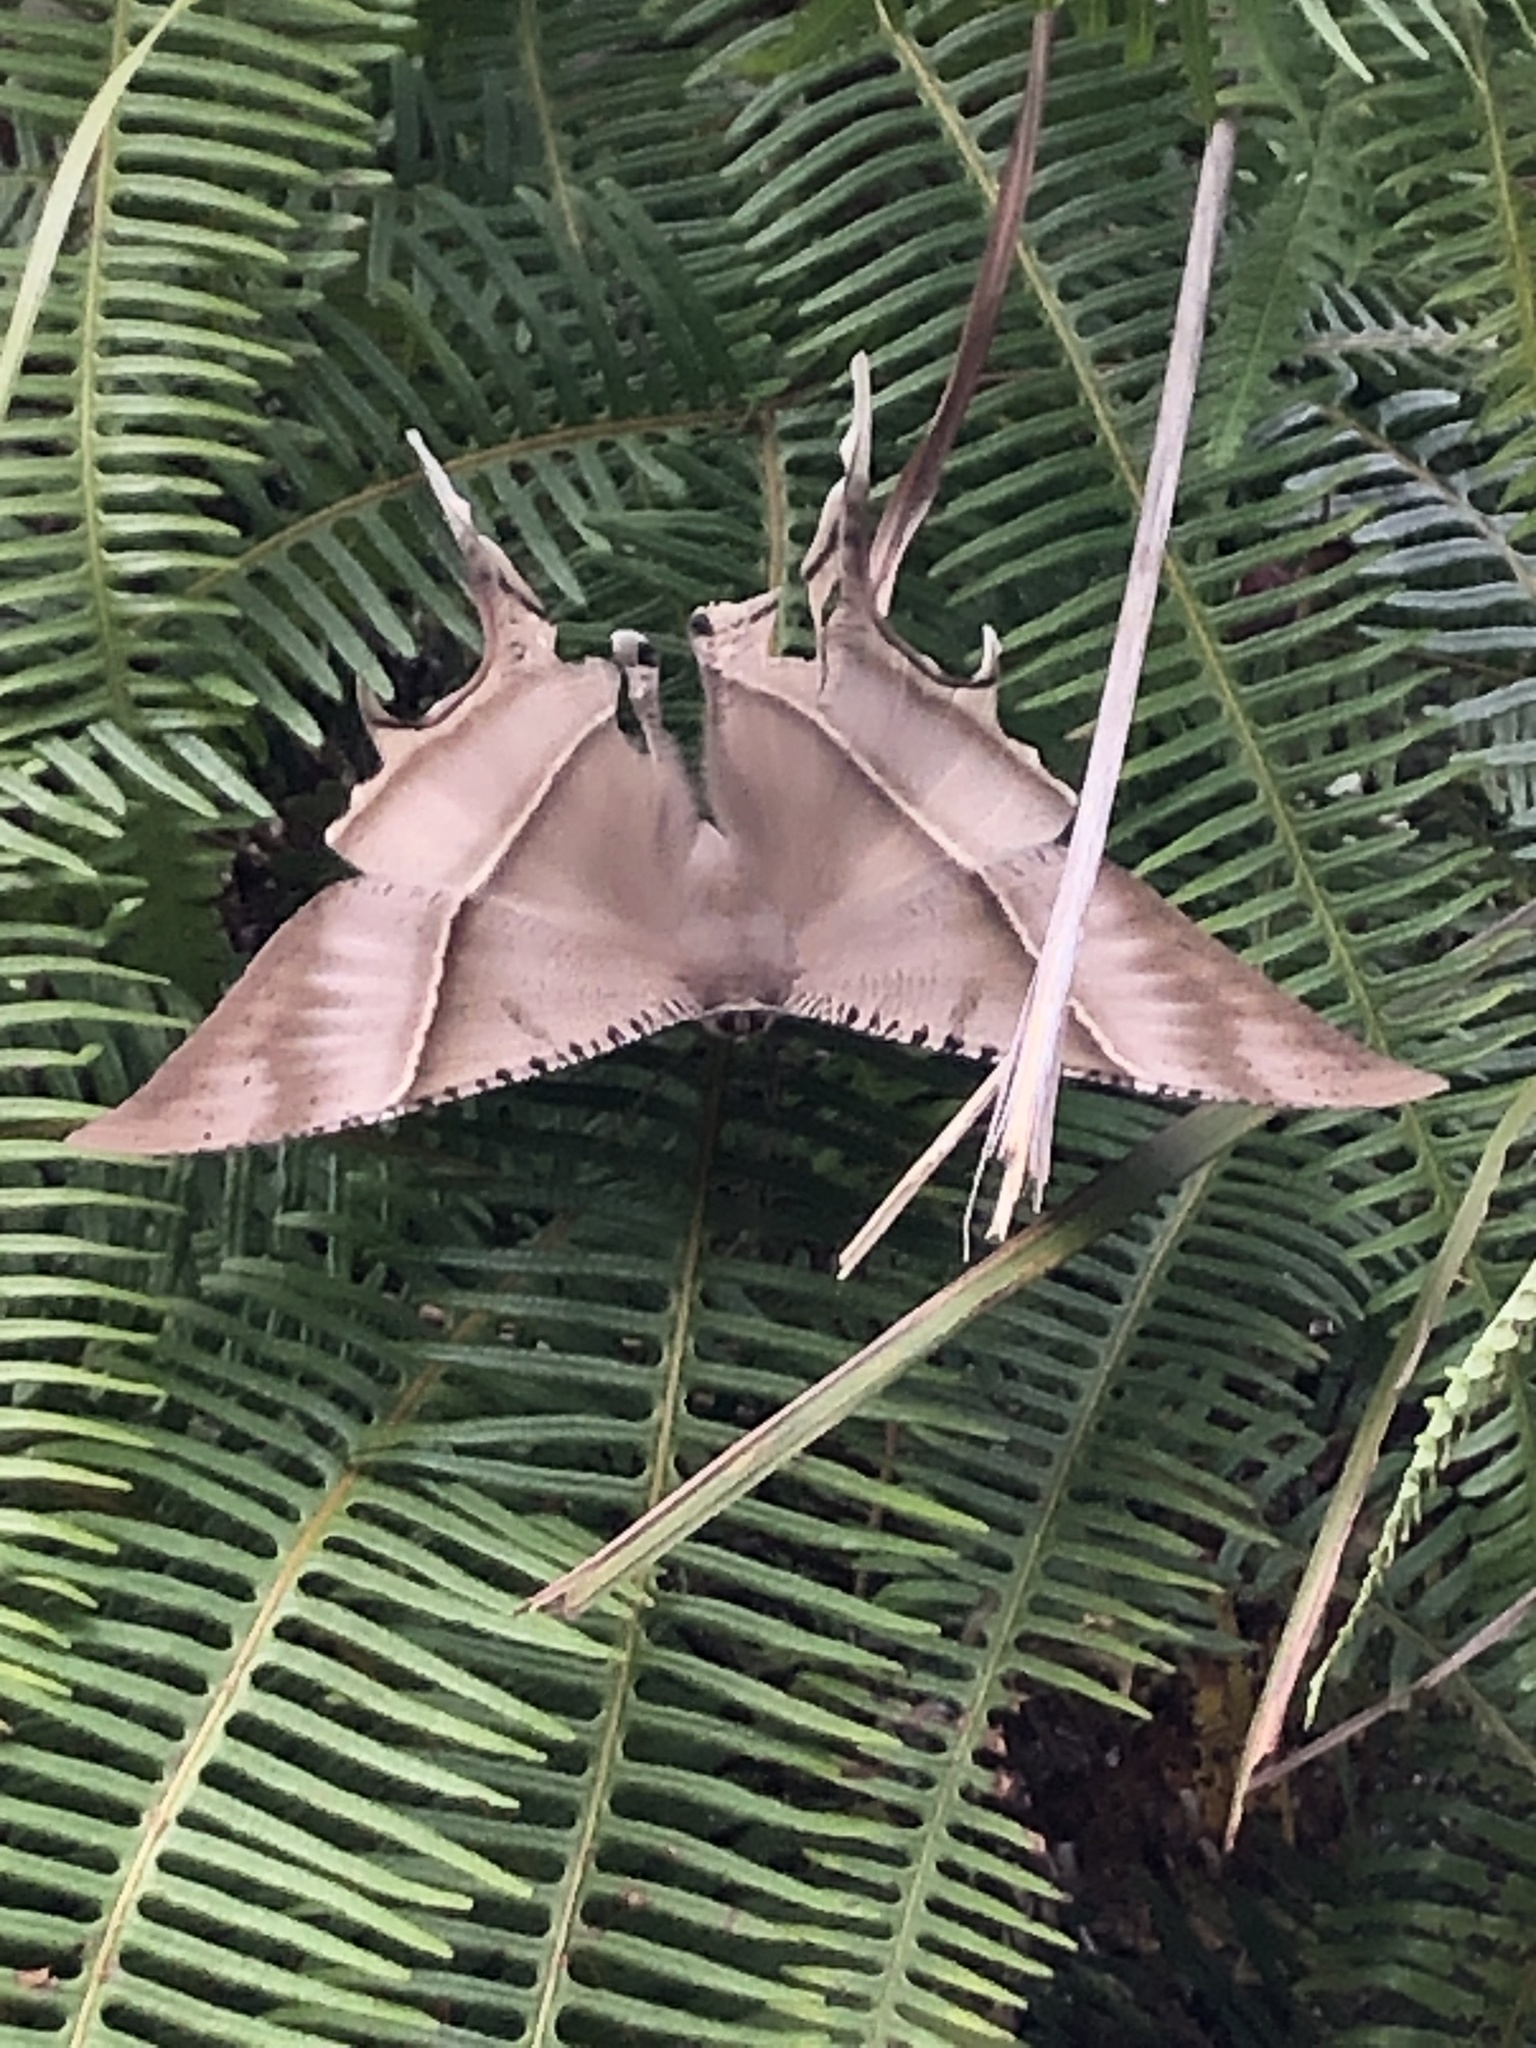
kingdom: Animalia
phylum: Arthropoda
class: Insecta
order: Lepidoptera
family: Uraniidae
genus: Lyssa
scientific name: Lyssa zampa
